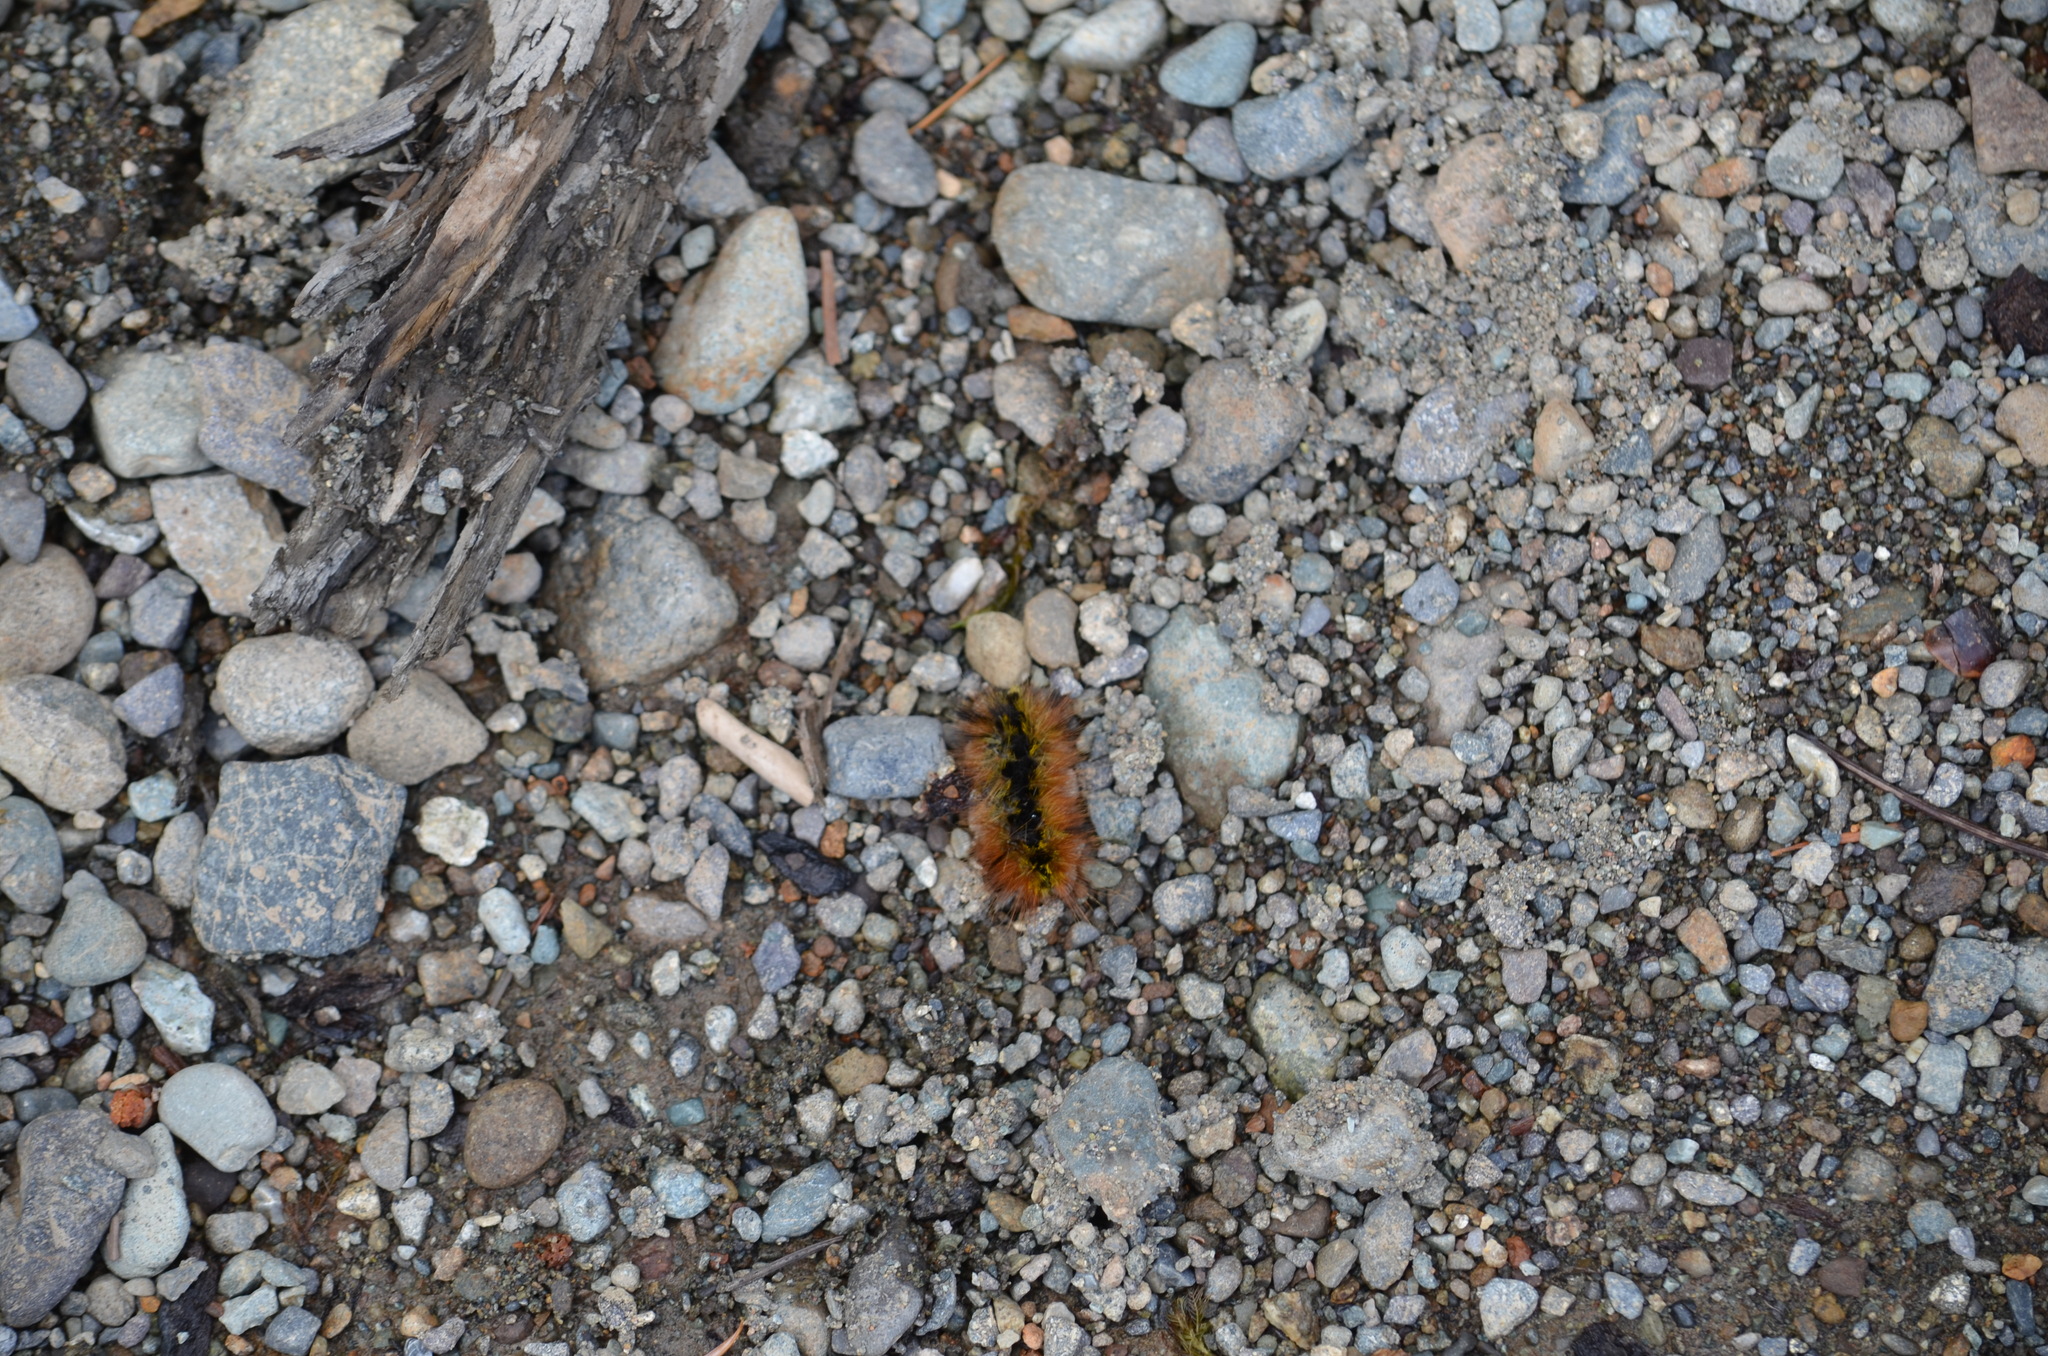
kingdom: Animalia
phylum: Arthropoda
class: Insecta
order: Lepidoptera
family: Erebidae
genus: Lophocampa
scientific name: Lophocampa argentata
